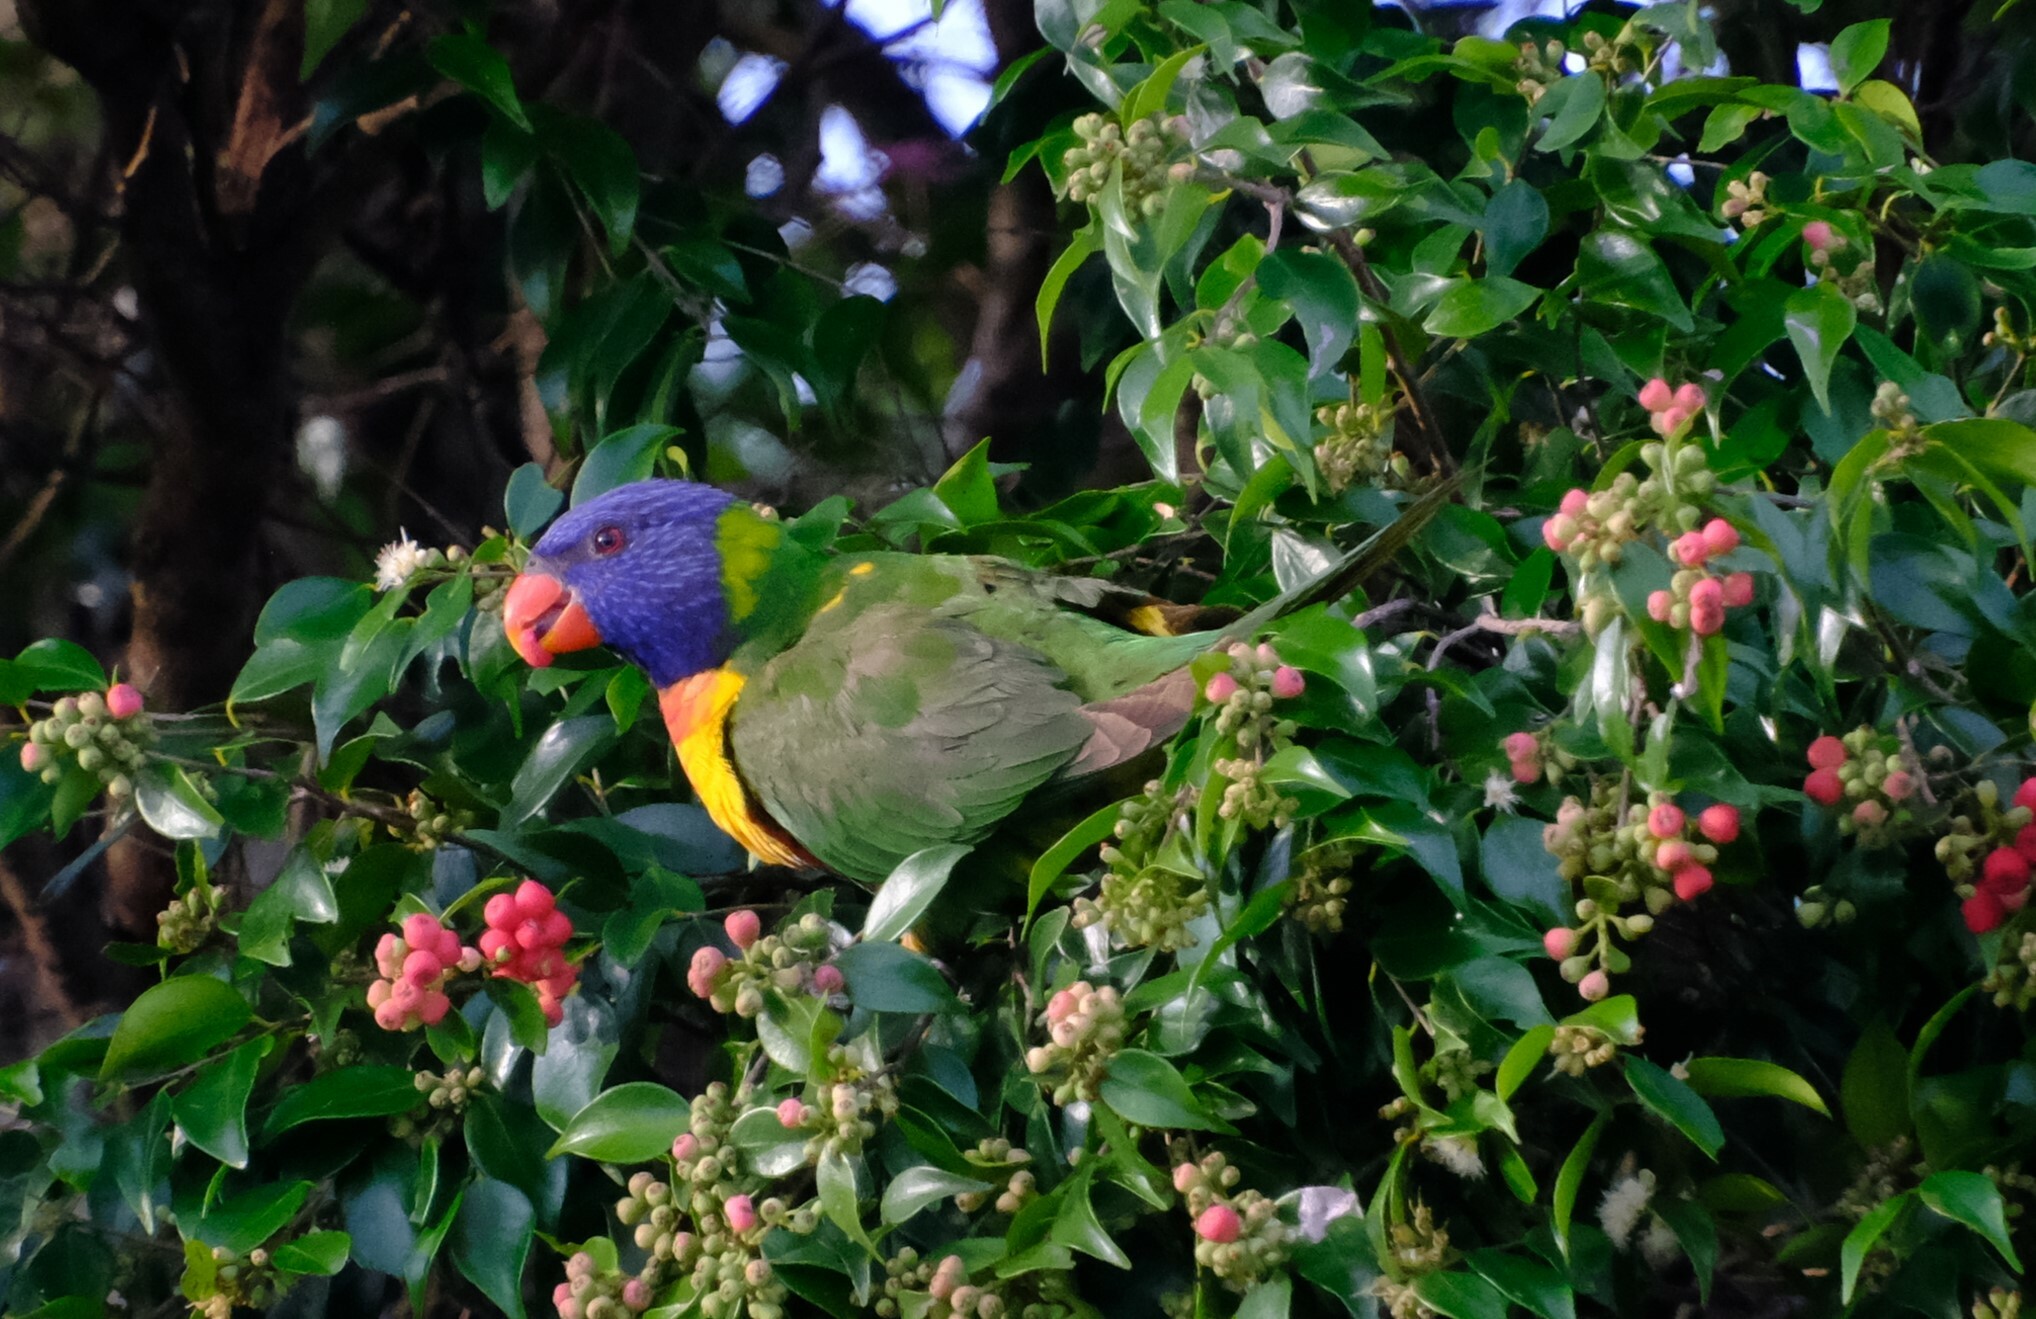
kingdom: Animalia
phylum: Chordata
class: Aves
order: Psittaciformes
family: Psittacidae
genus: Trichoglossus
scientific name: Trichoglossus haematodus
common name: Coconut lorikeet
